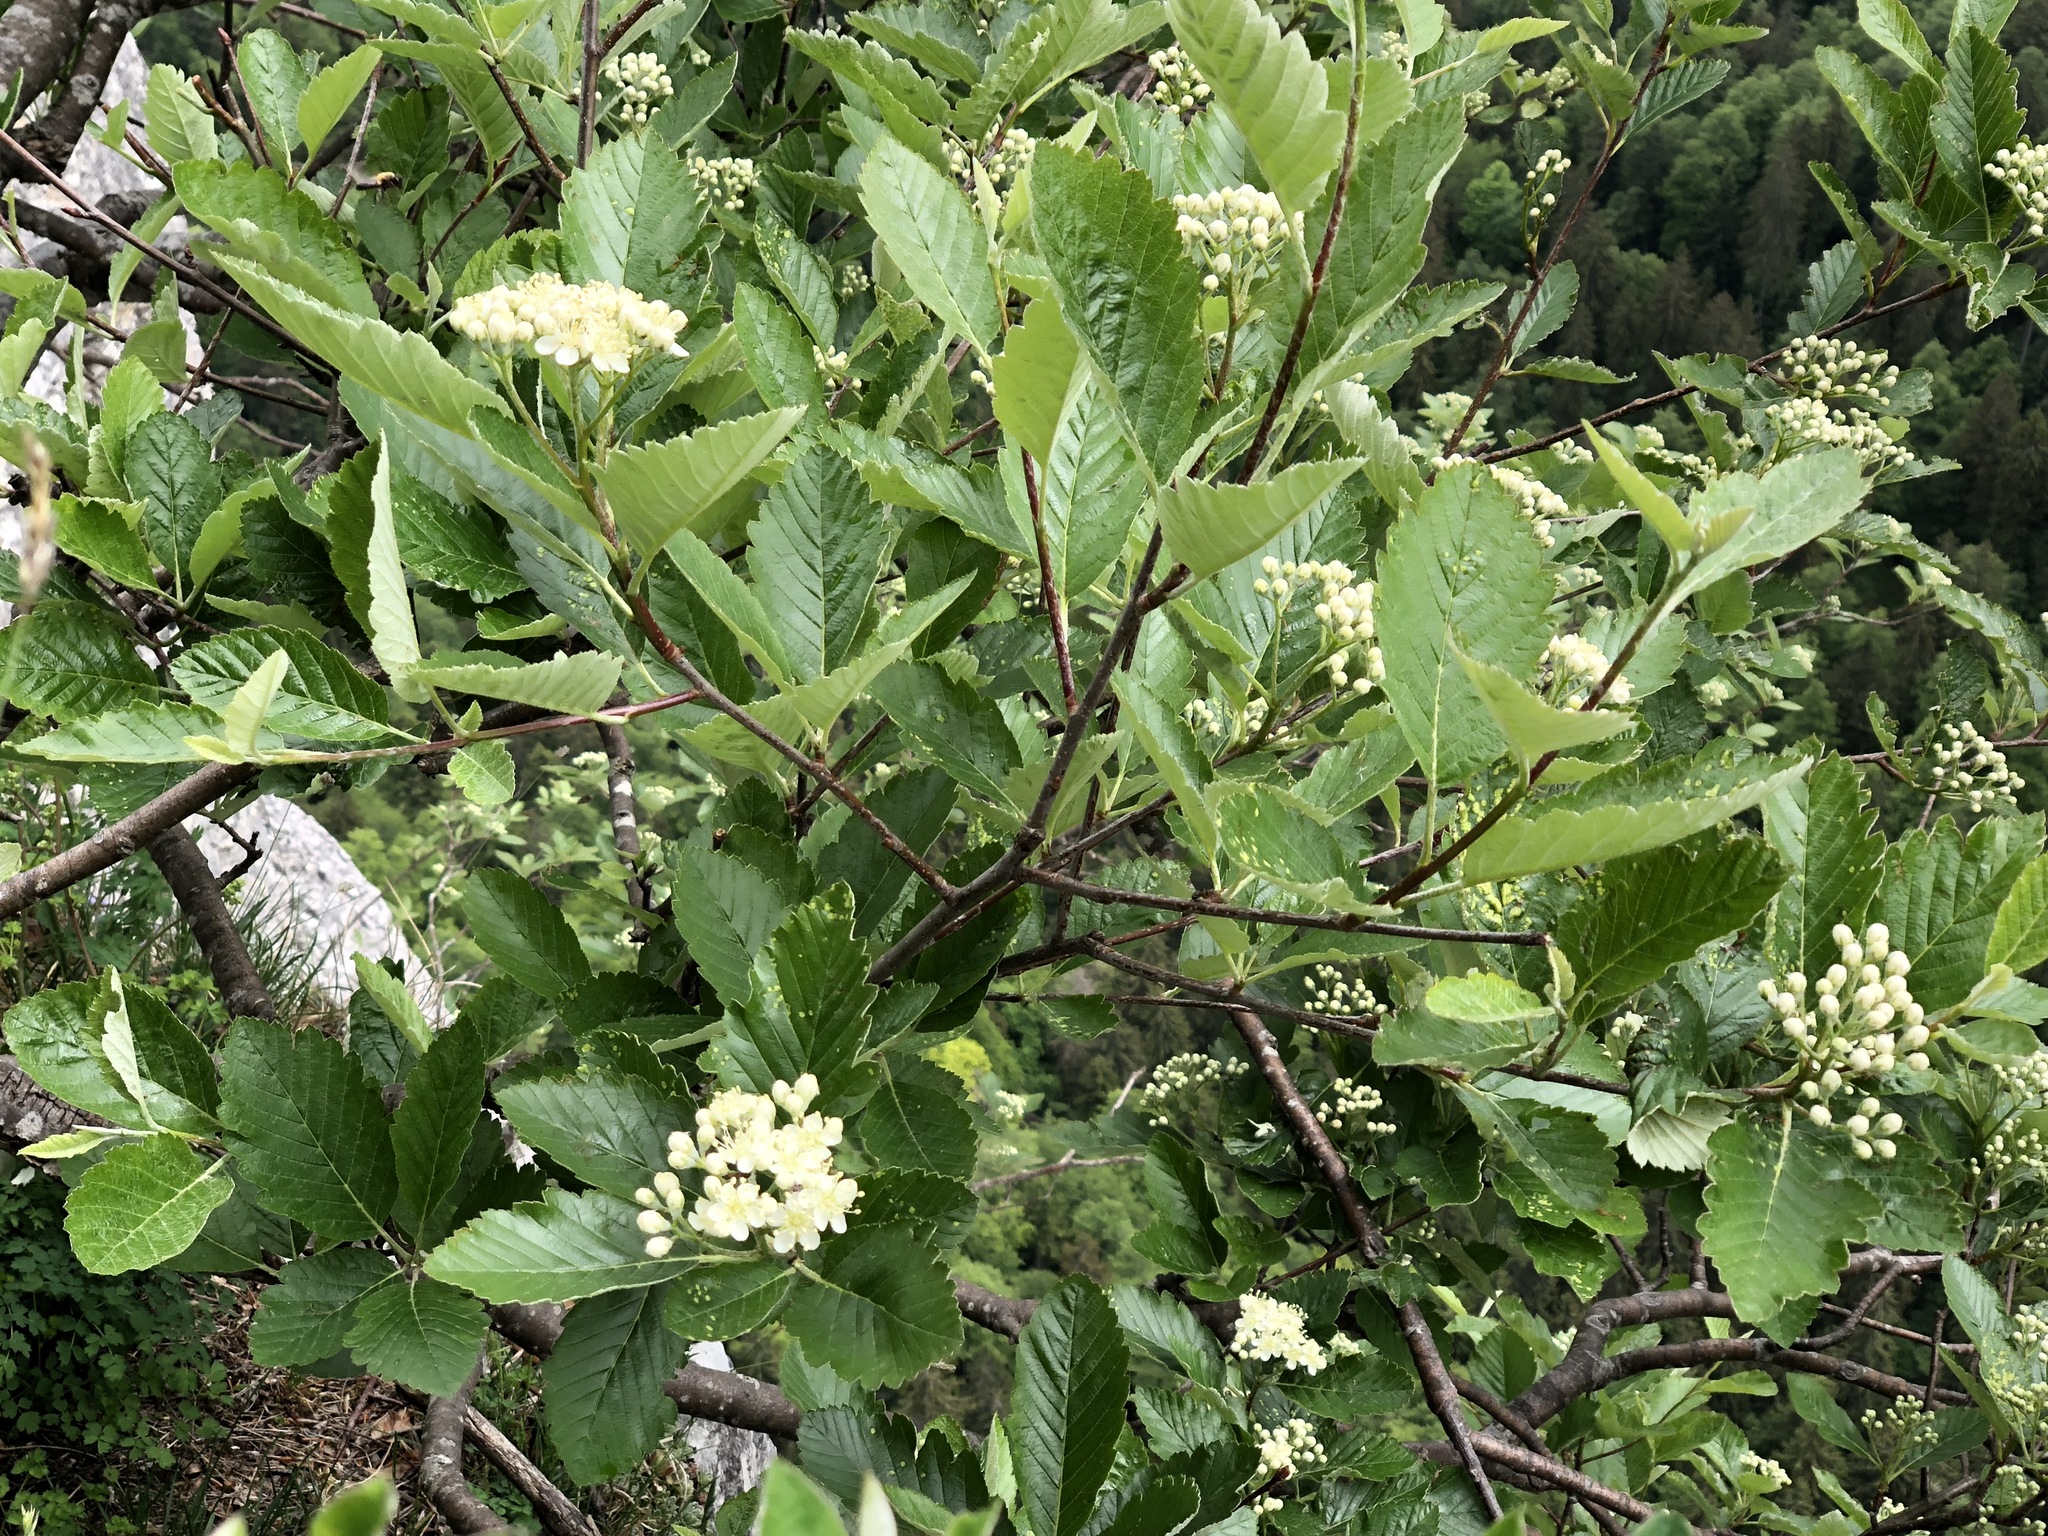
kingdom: Plantae
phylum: Tracheophyta
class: Magnoliopsida
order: Rosales
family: Rosaceae
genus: Hedlundia
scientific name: Hedlundia mougeotii
